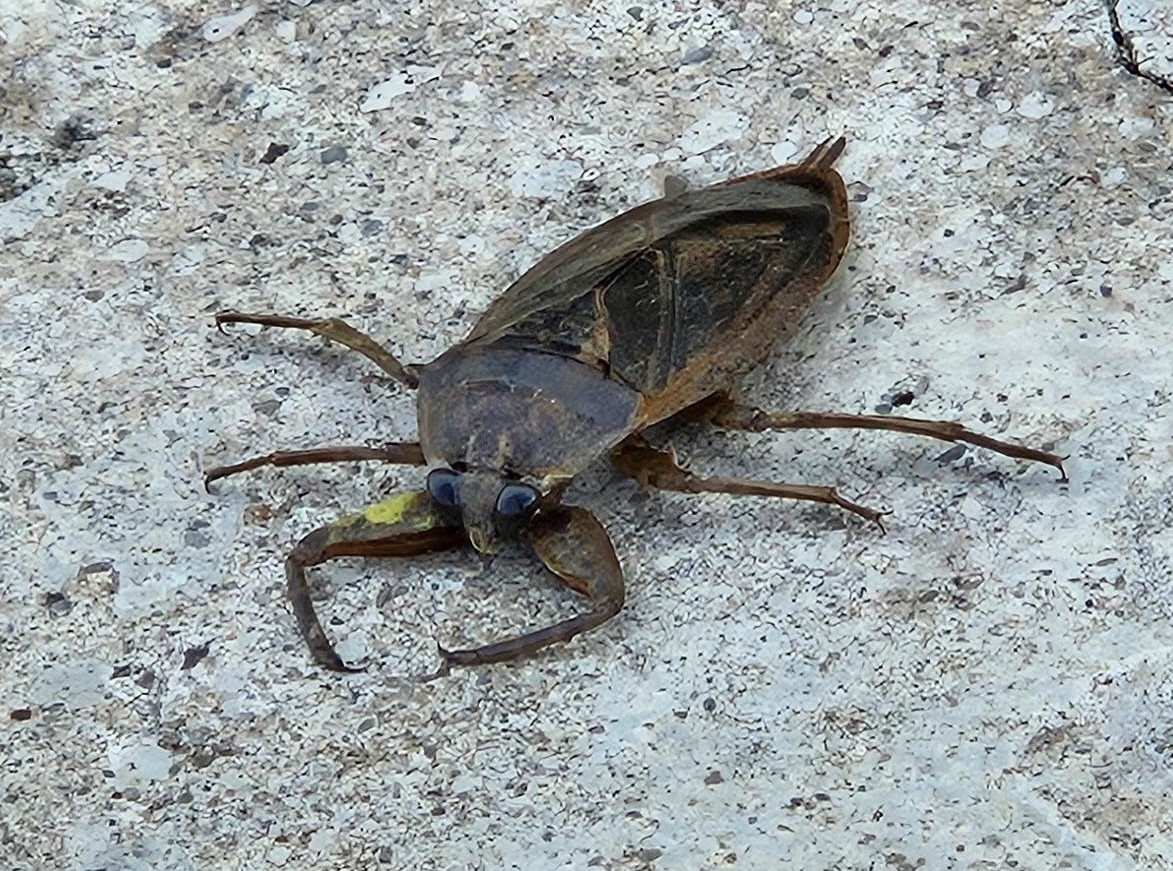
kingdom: Animalia
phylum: Arthropoda
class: Insecta
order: Hemiptera
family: Belostomatidae
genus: Lethocerus
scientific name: Lethocerus americanus
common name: Giant water bug
